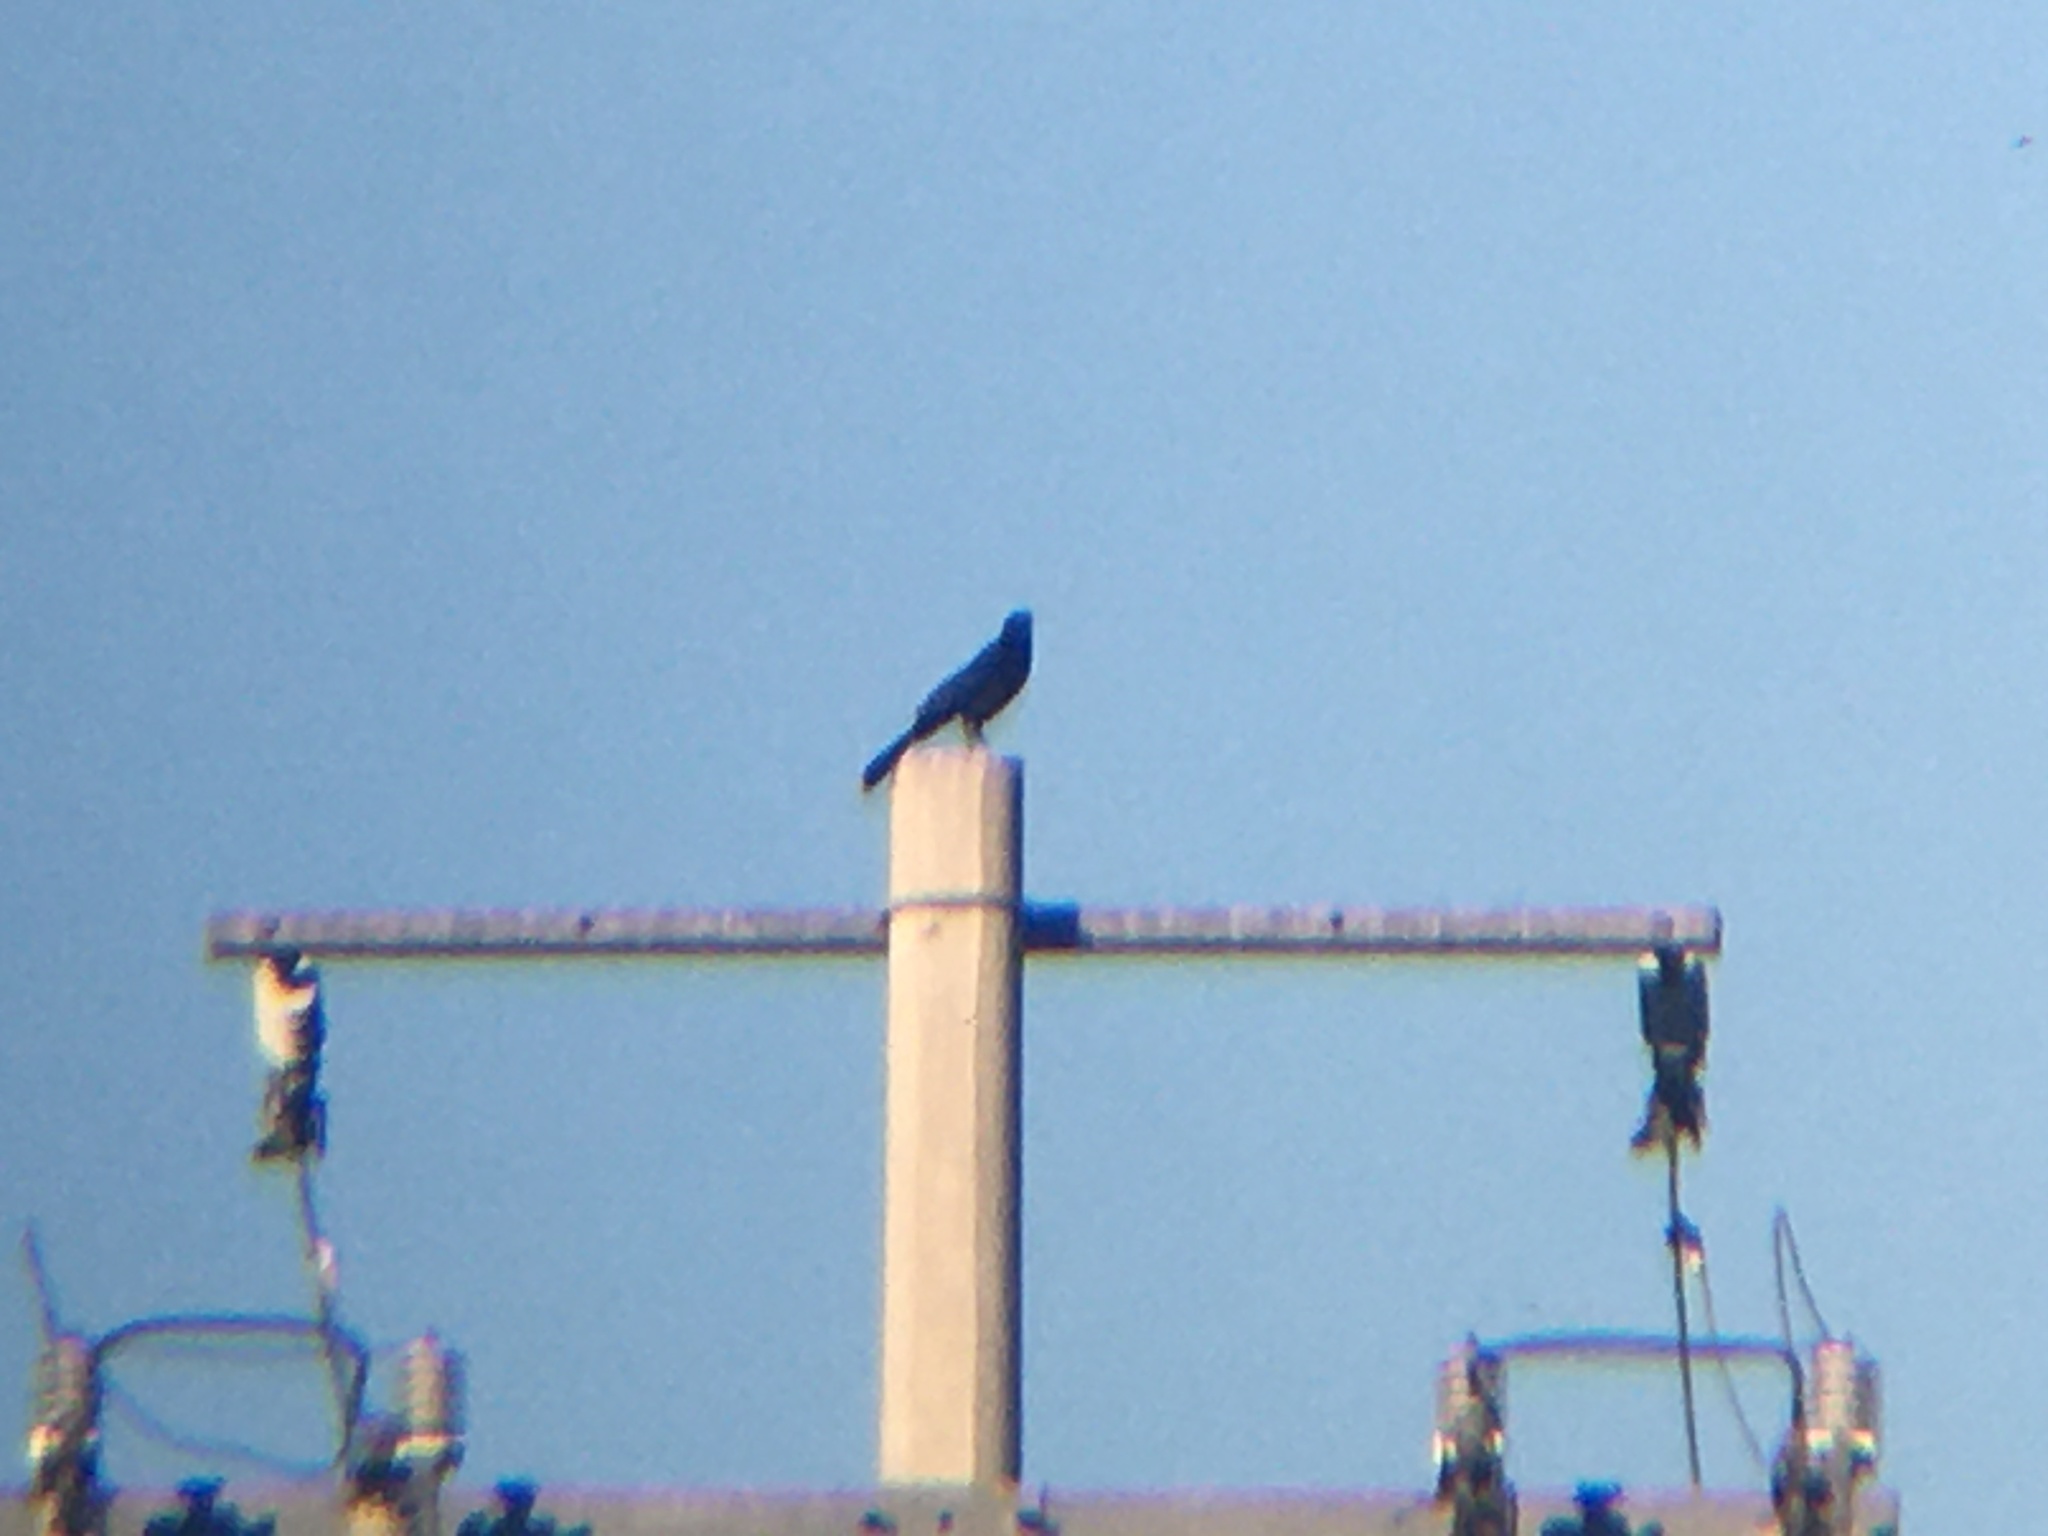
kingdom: Animalia
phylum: Chordata
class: Aves
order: Passeriformes
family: Icteridae
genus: Quiscalus
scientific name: Quiscalus mexicanus
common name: Great-tailed grackle
